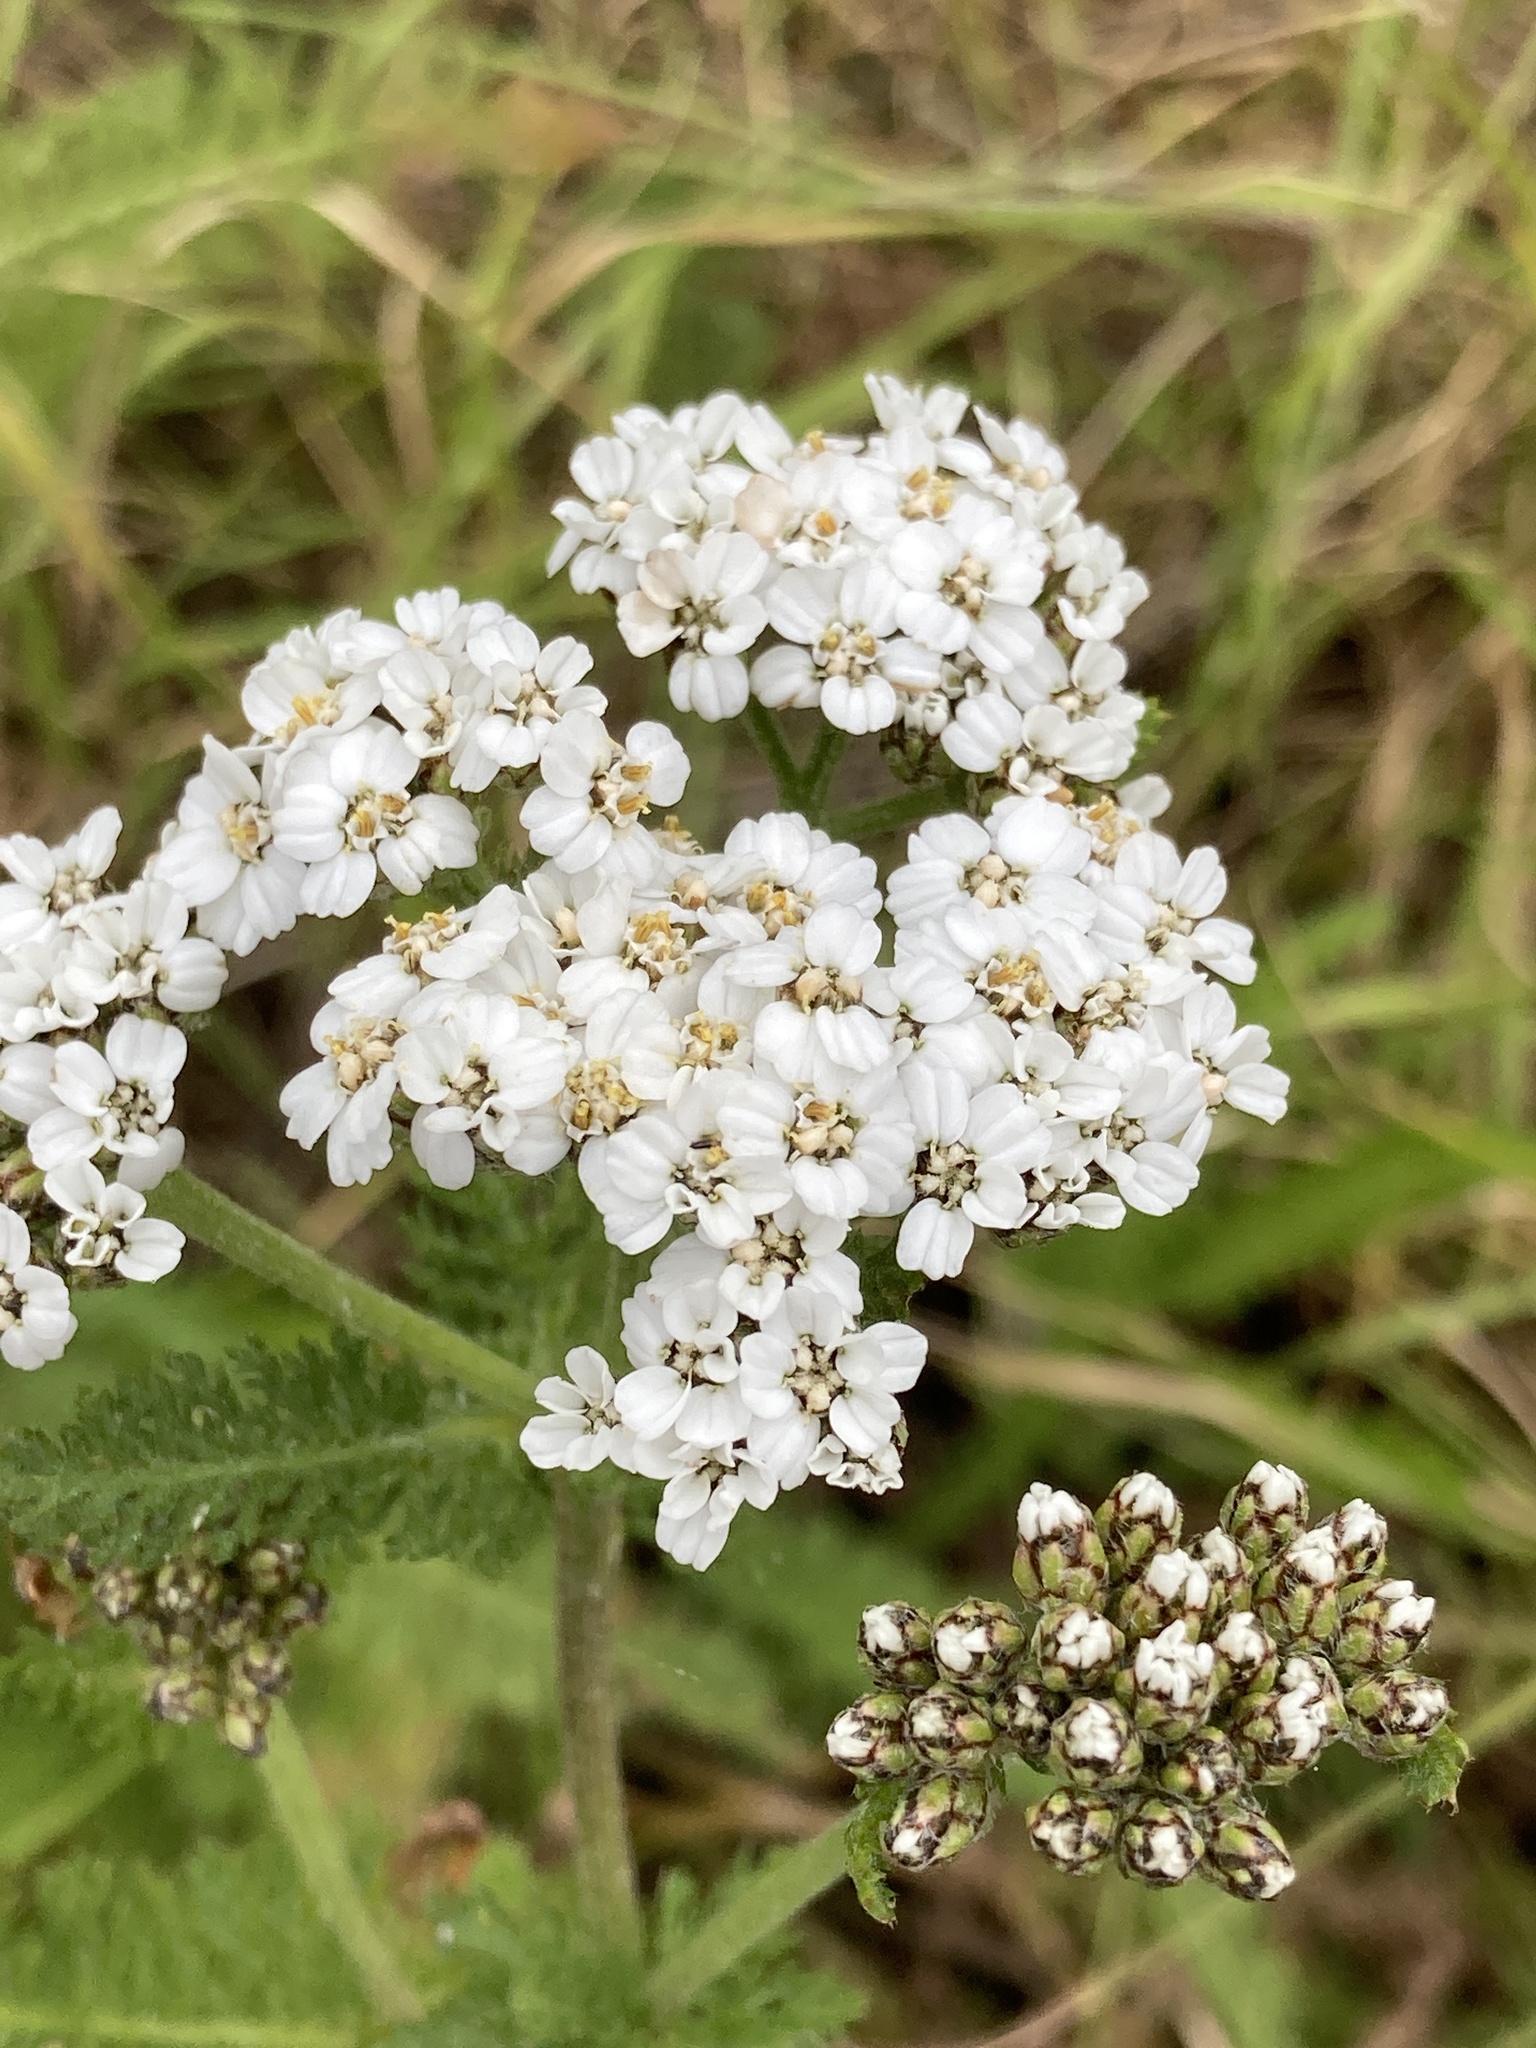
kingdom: Plantae
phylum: Tracheophyta
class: Magnoliopsida
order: Asterales
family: Asteraceae
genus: Achillea
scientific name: Achillea millefolium
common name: Yarrow
